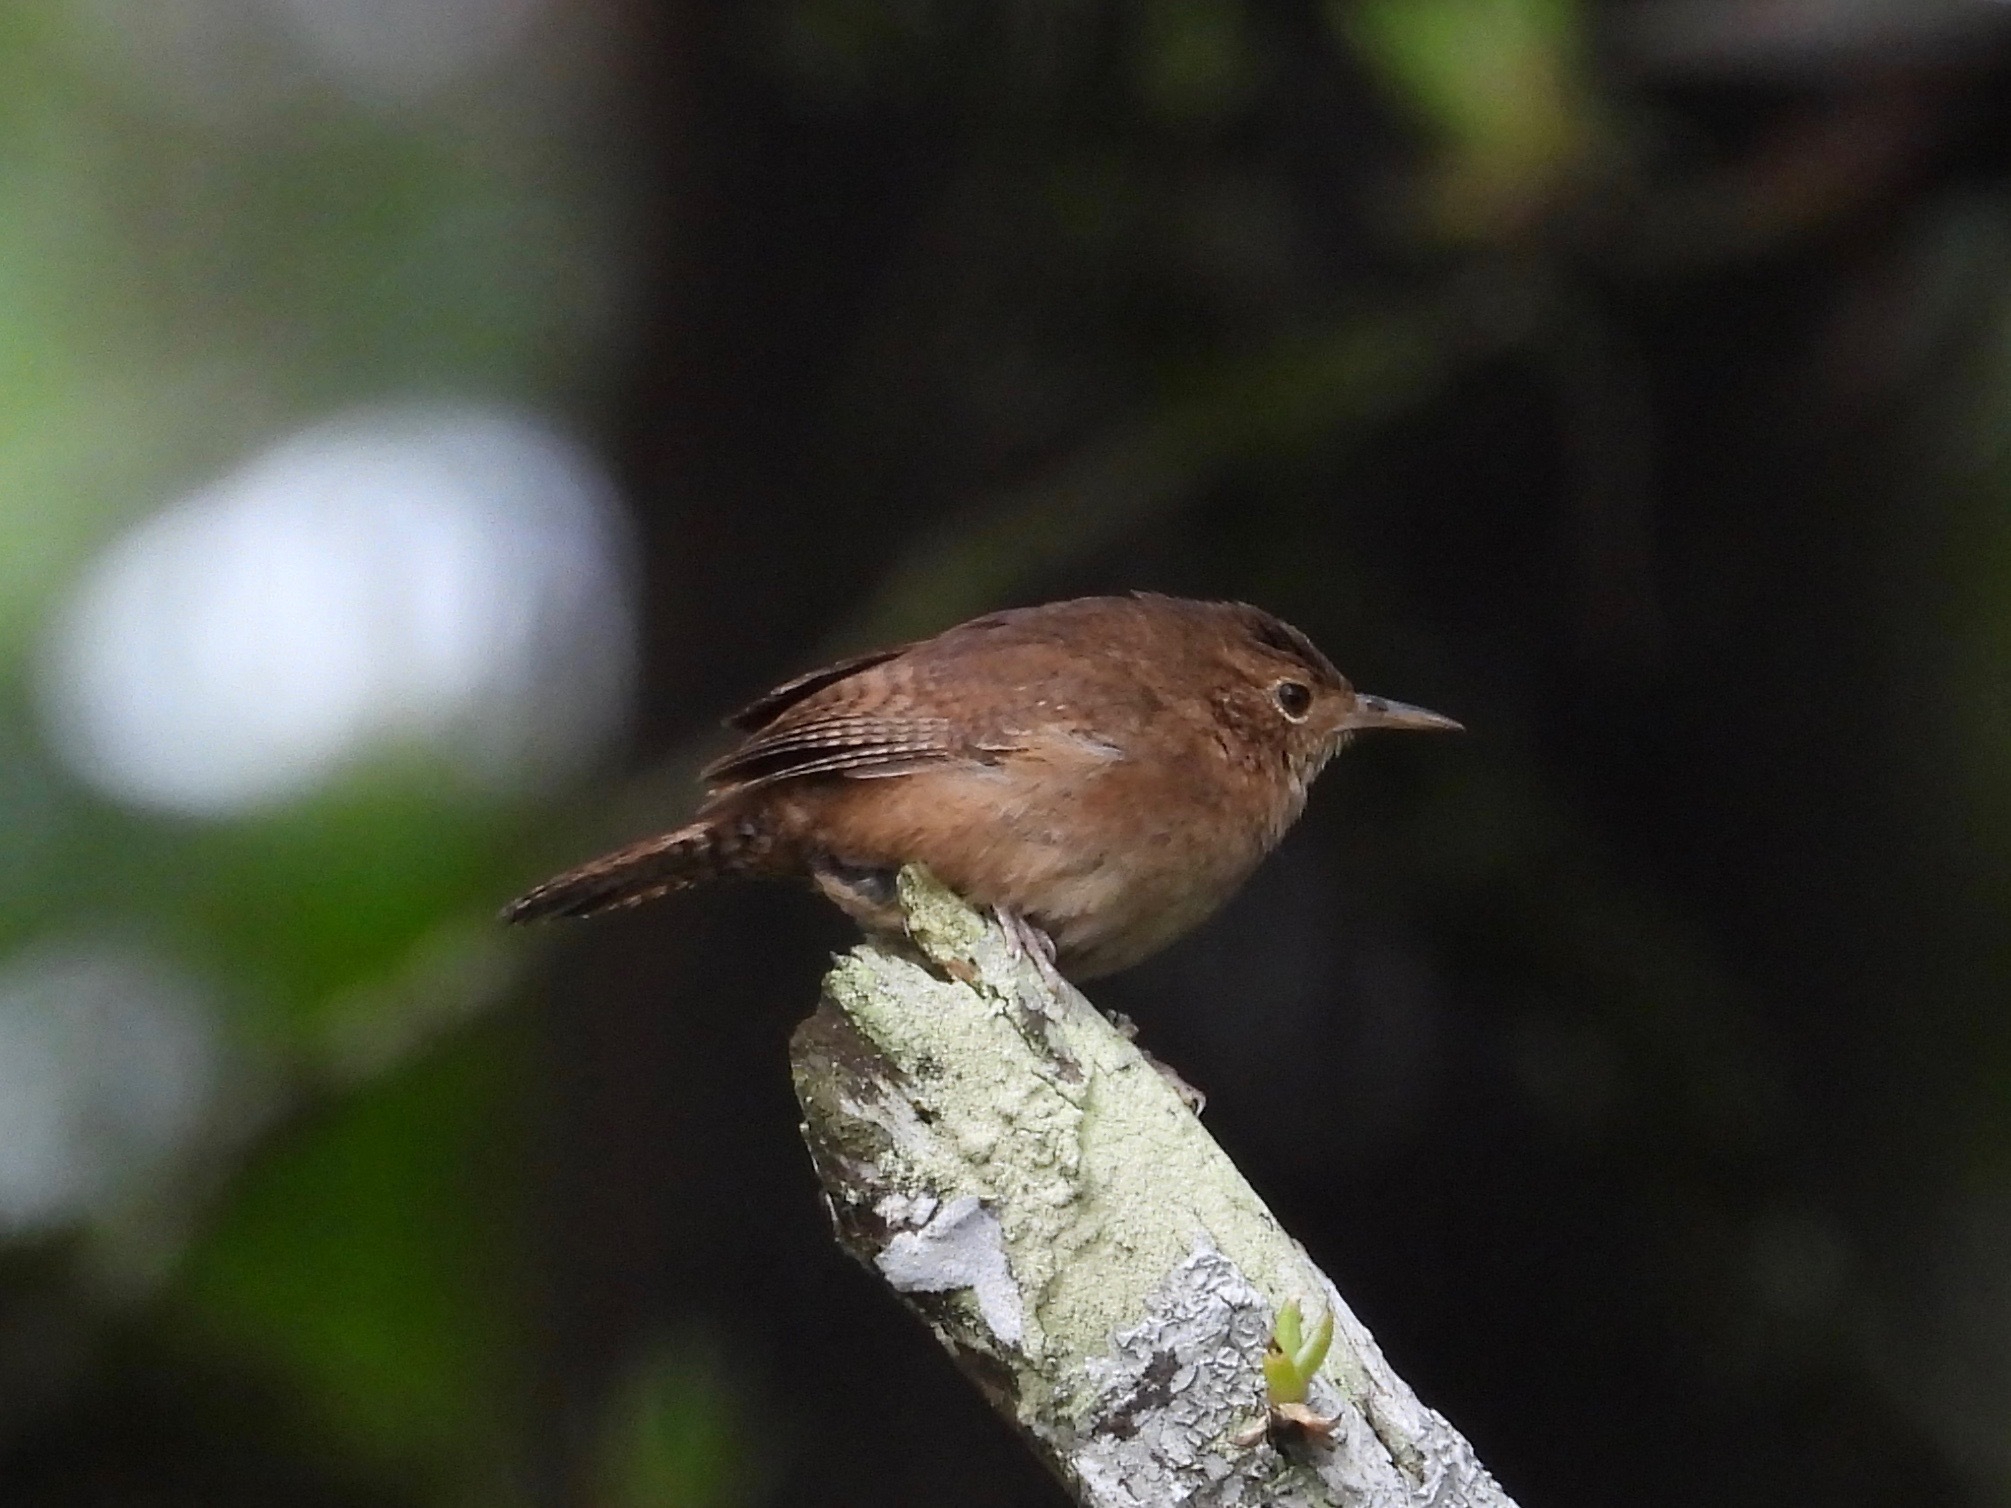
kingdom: Animalia
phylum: Chordata
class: Aves
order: Passeriformes
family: Troglodytidae
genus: Troglodytes
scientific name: Troglodytes aedon
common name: House wren
